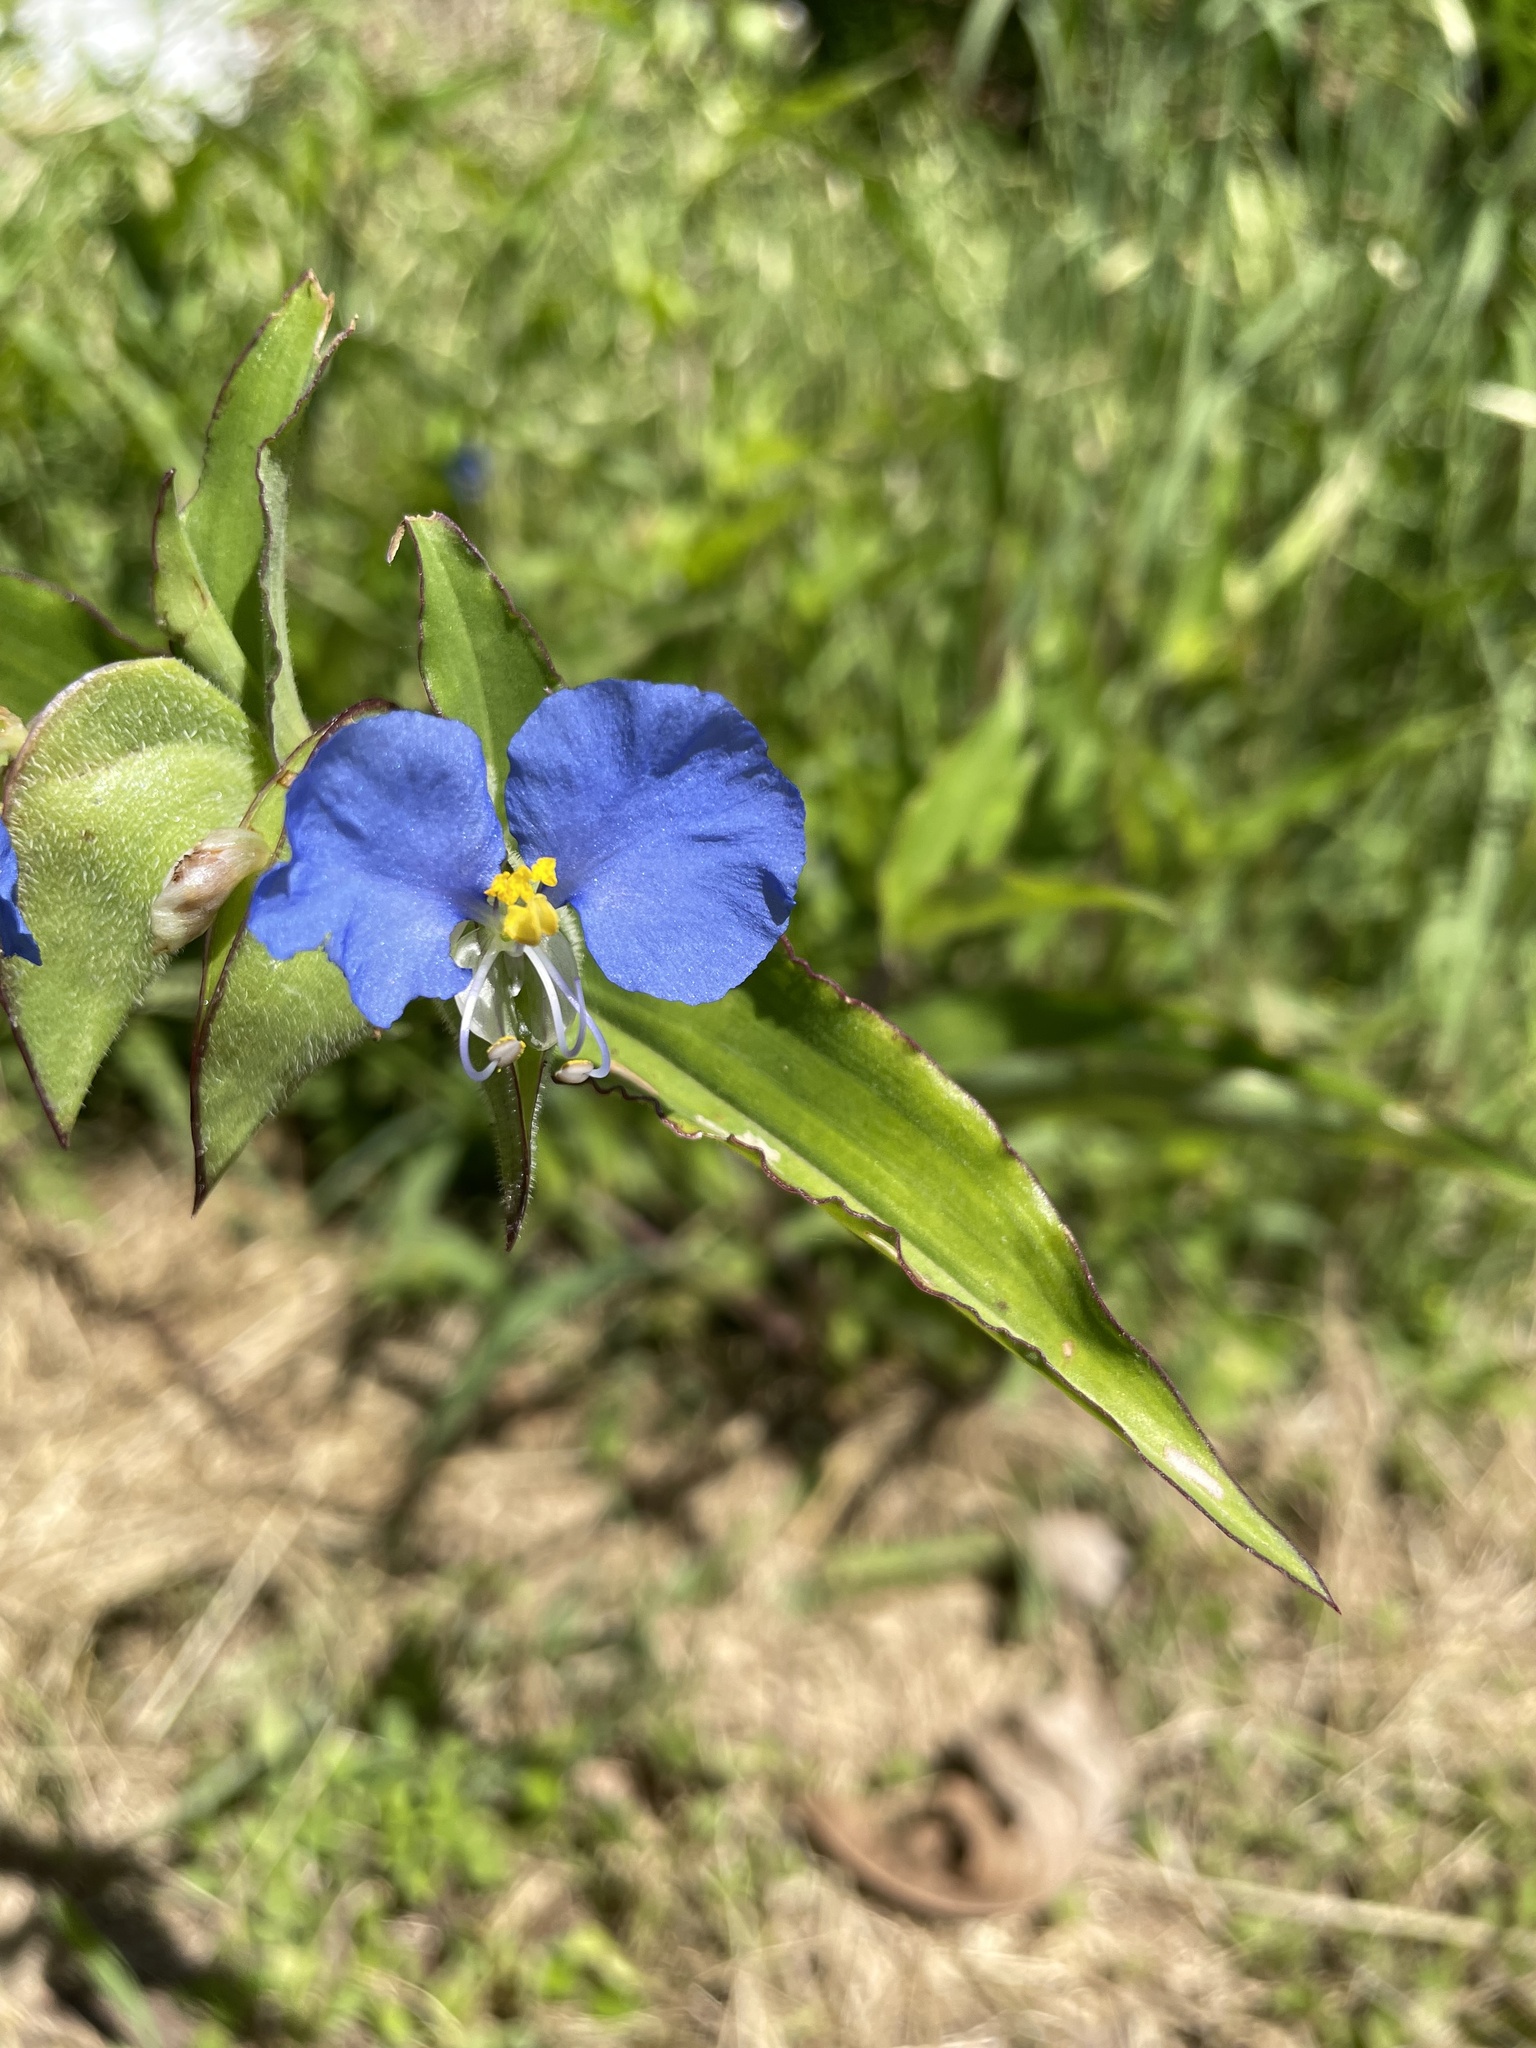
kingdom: Plantae
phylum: Tracheophyta
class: Liliopsida
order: Commelinales
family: Commelinaceae
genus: Commelina
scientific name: Commelina erecta
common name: Blousel blommetjie
